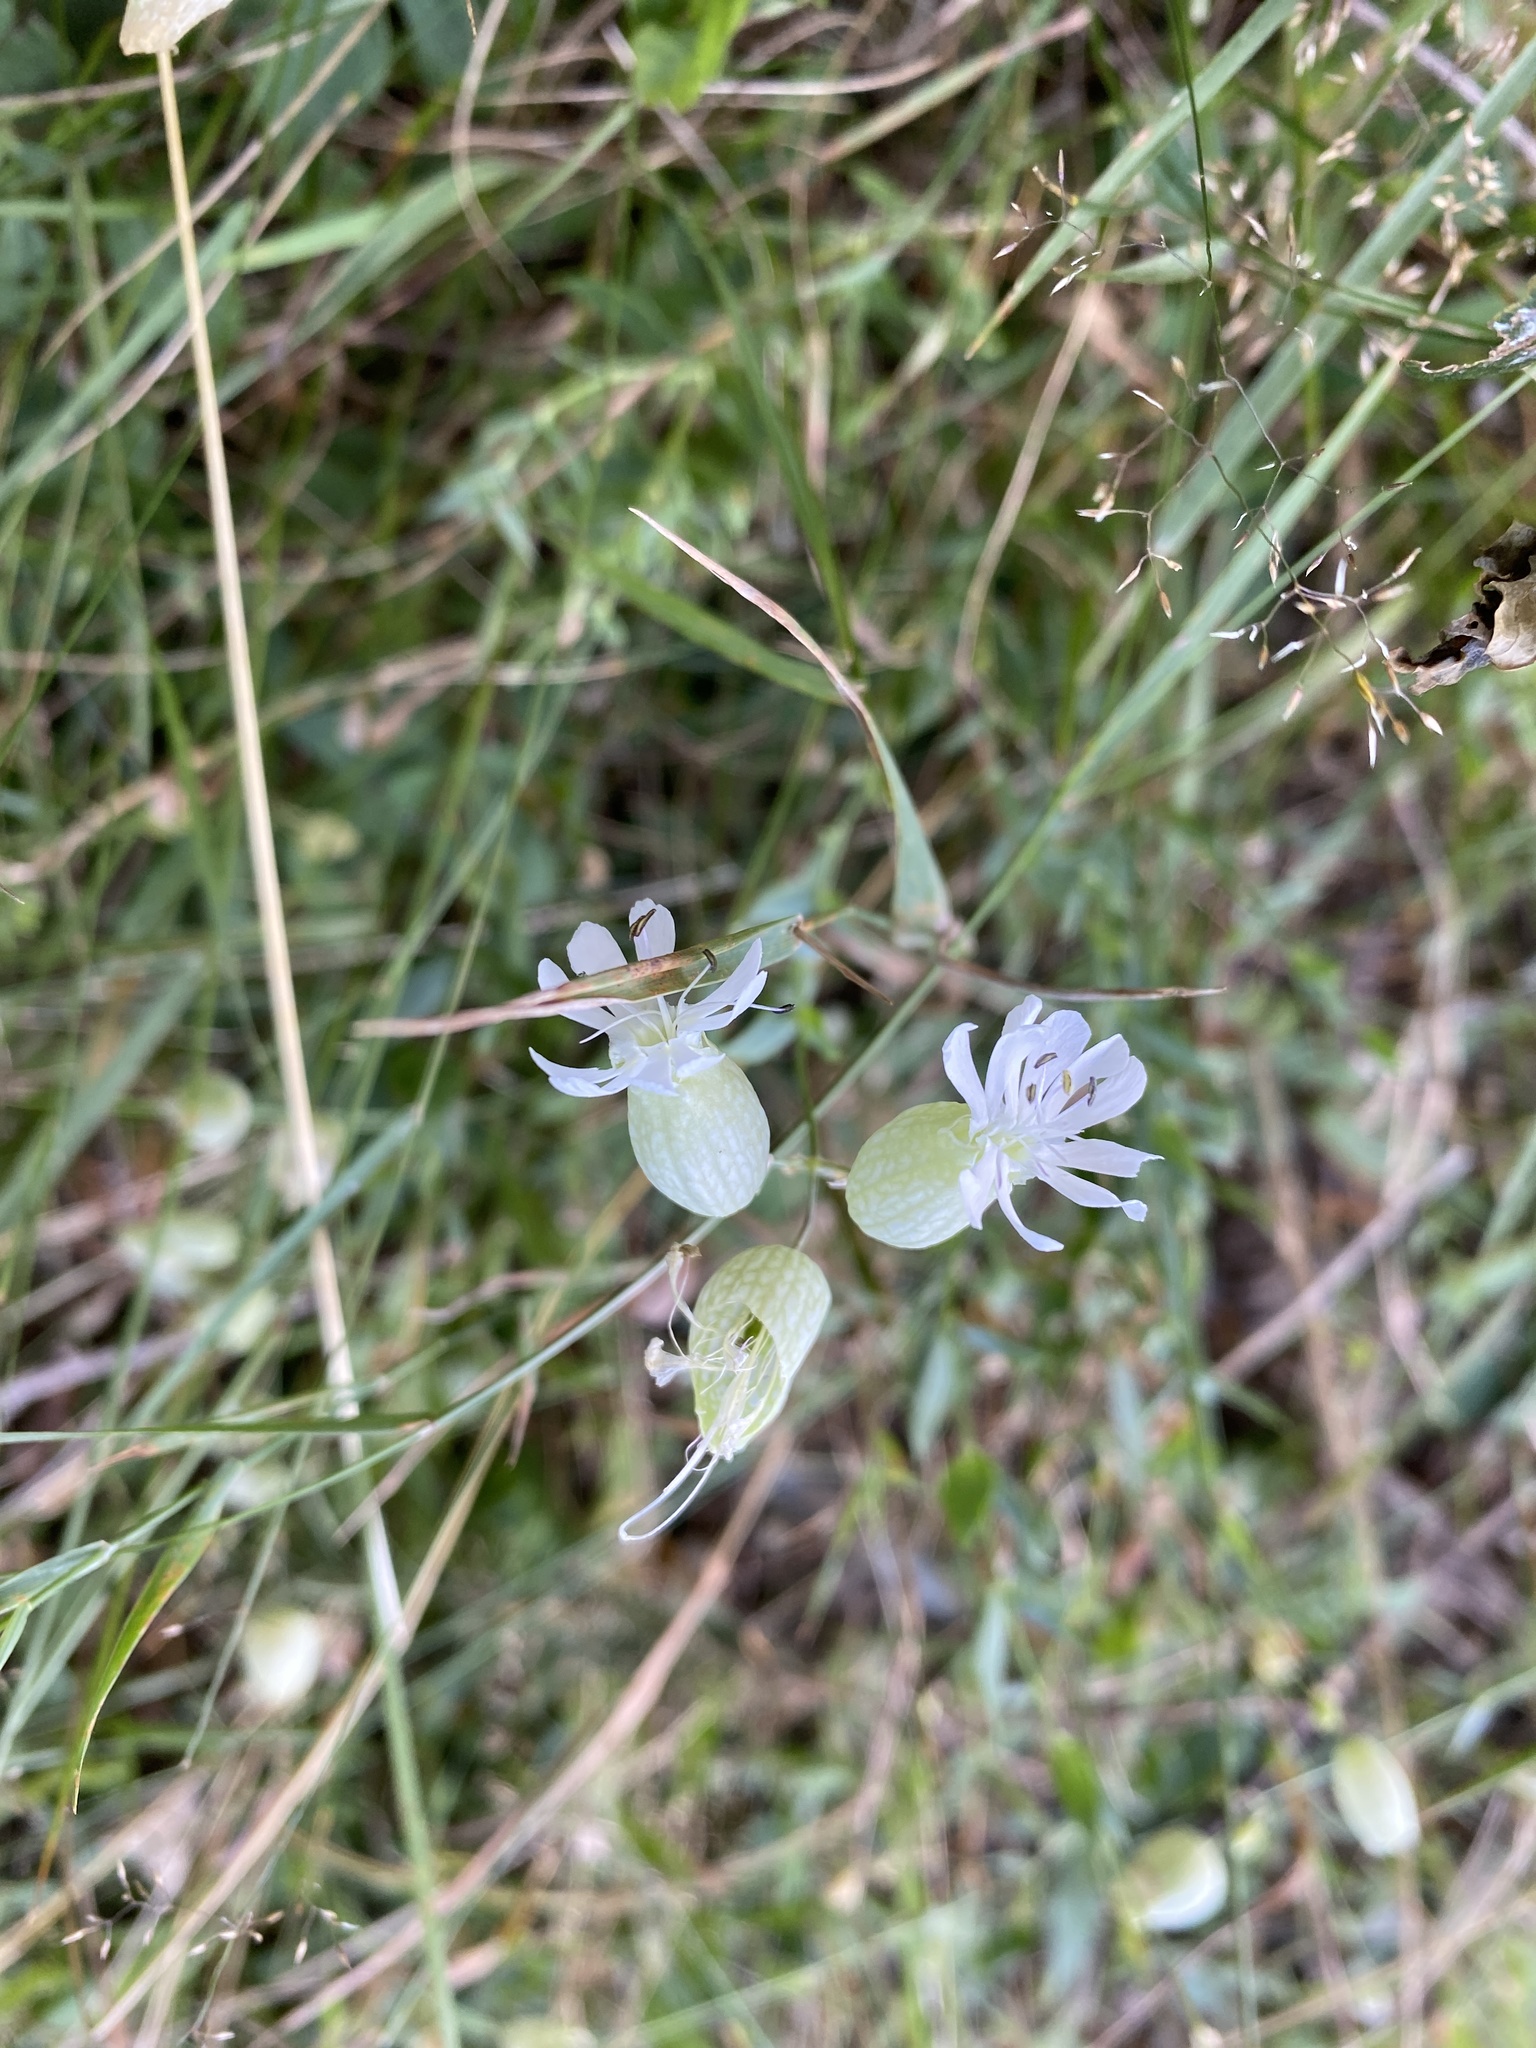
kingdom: Plantae
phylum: Tracheophyta
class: Magnoliopsida
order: Caryophyllales
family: Caryophyllaceae
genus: Silene
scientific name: Silene vulgaris
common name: Bladder campion
